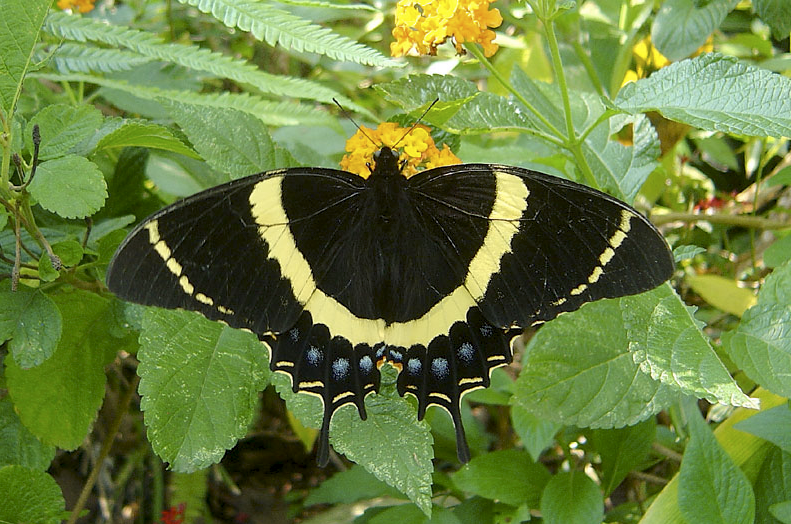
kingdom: Animalia
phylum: Arthropoda
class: Insecta
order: Lepidoptera
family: Papilionidae
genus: Papilio
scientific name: Papilio garamas
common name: Magnificent swallowtail
